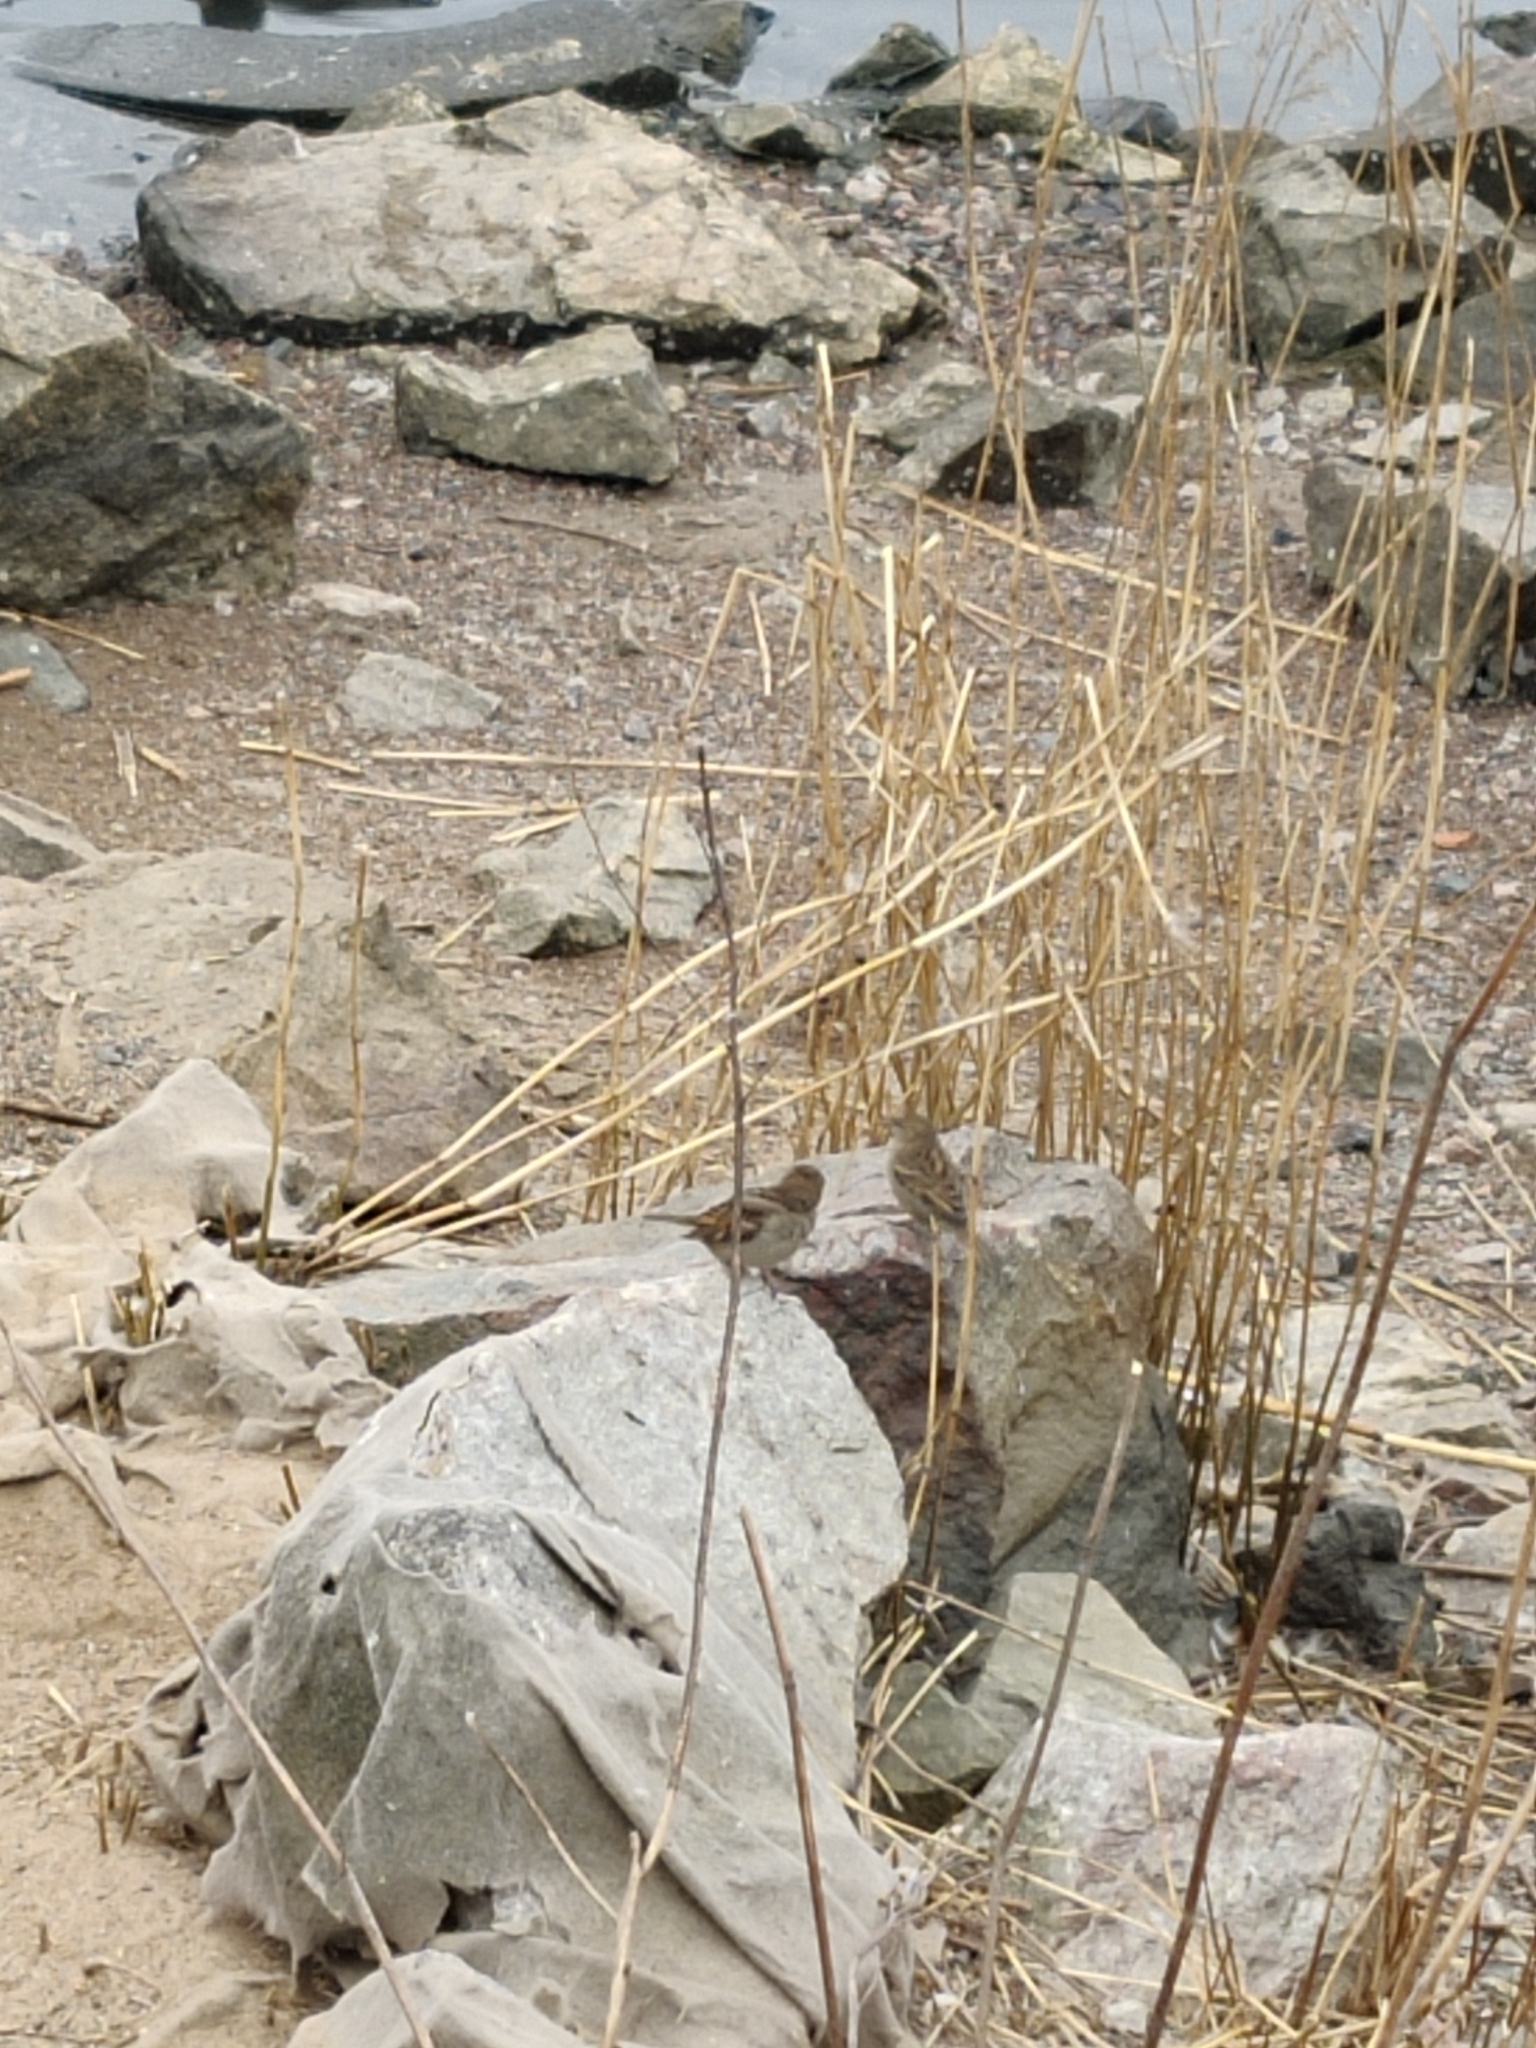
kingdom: Animalia
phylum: Chordata
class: Aves
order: Passeriformes
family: Passeridae
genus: Passer
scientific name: Passer domesticus
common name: House sparrow
